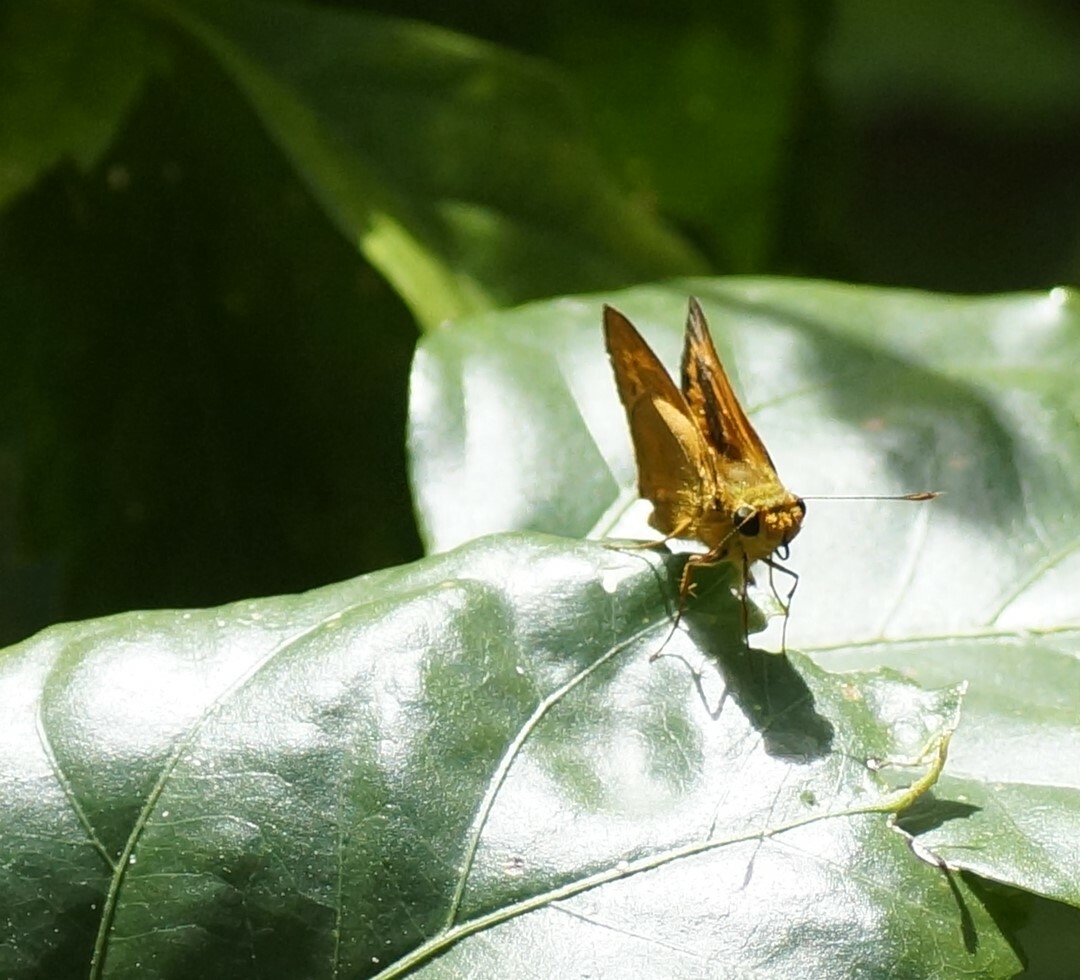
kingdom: Animalia
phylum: Arthropoda
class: Insecta
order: Lepidoptera
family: Hesperiidae
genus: Telicota
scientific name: Telicota augias
